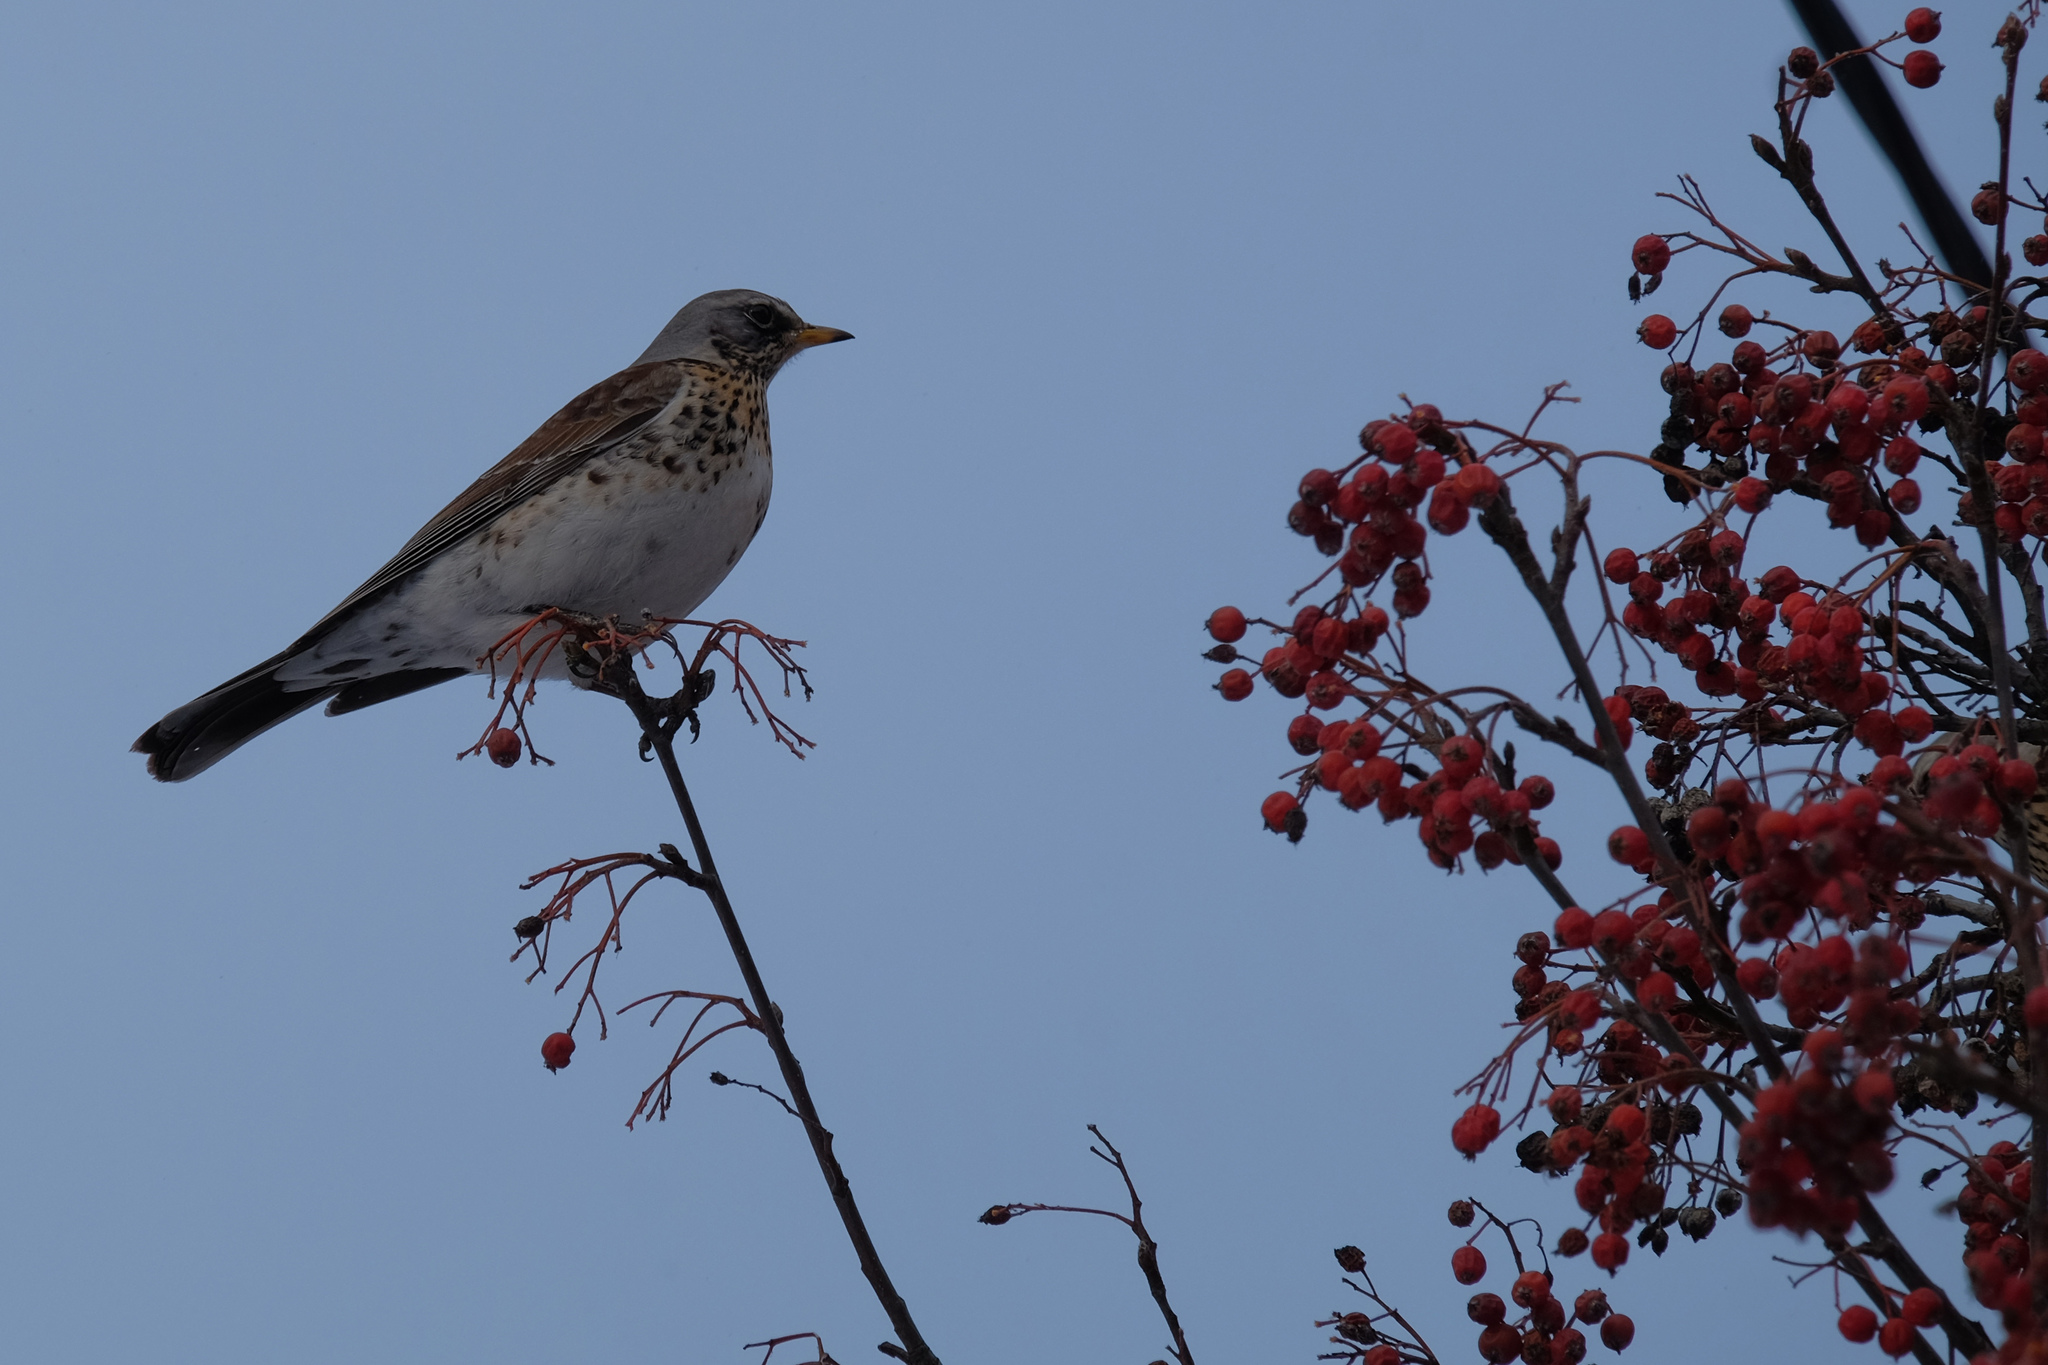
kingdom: Animalia
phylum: Chordata
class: Aves
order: Passeriformes
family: Turdidae
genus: Turdus
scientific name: Turdus pilaris
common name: Fieldfare
